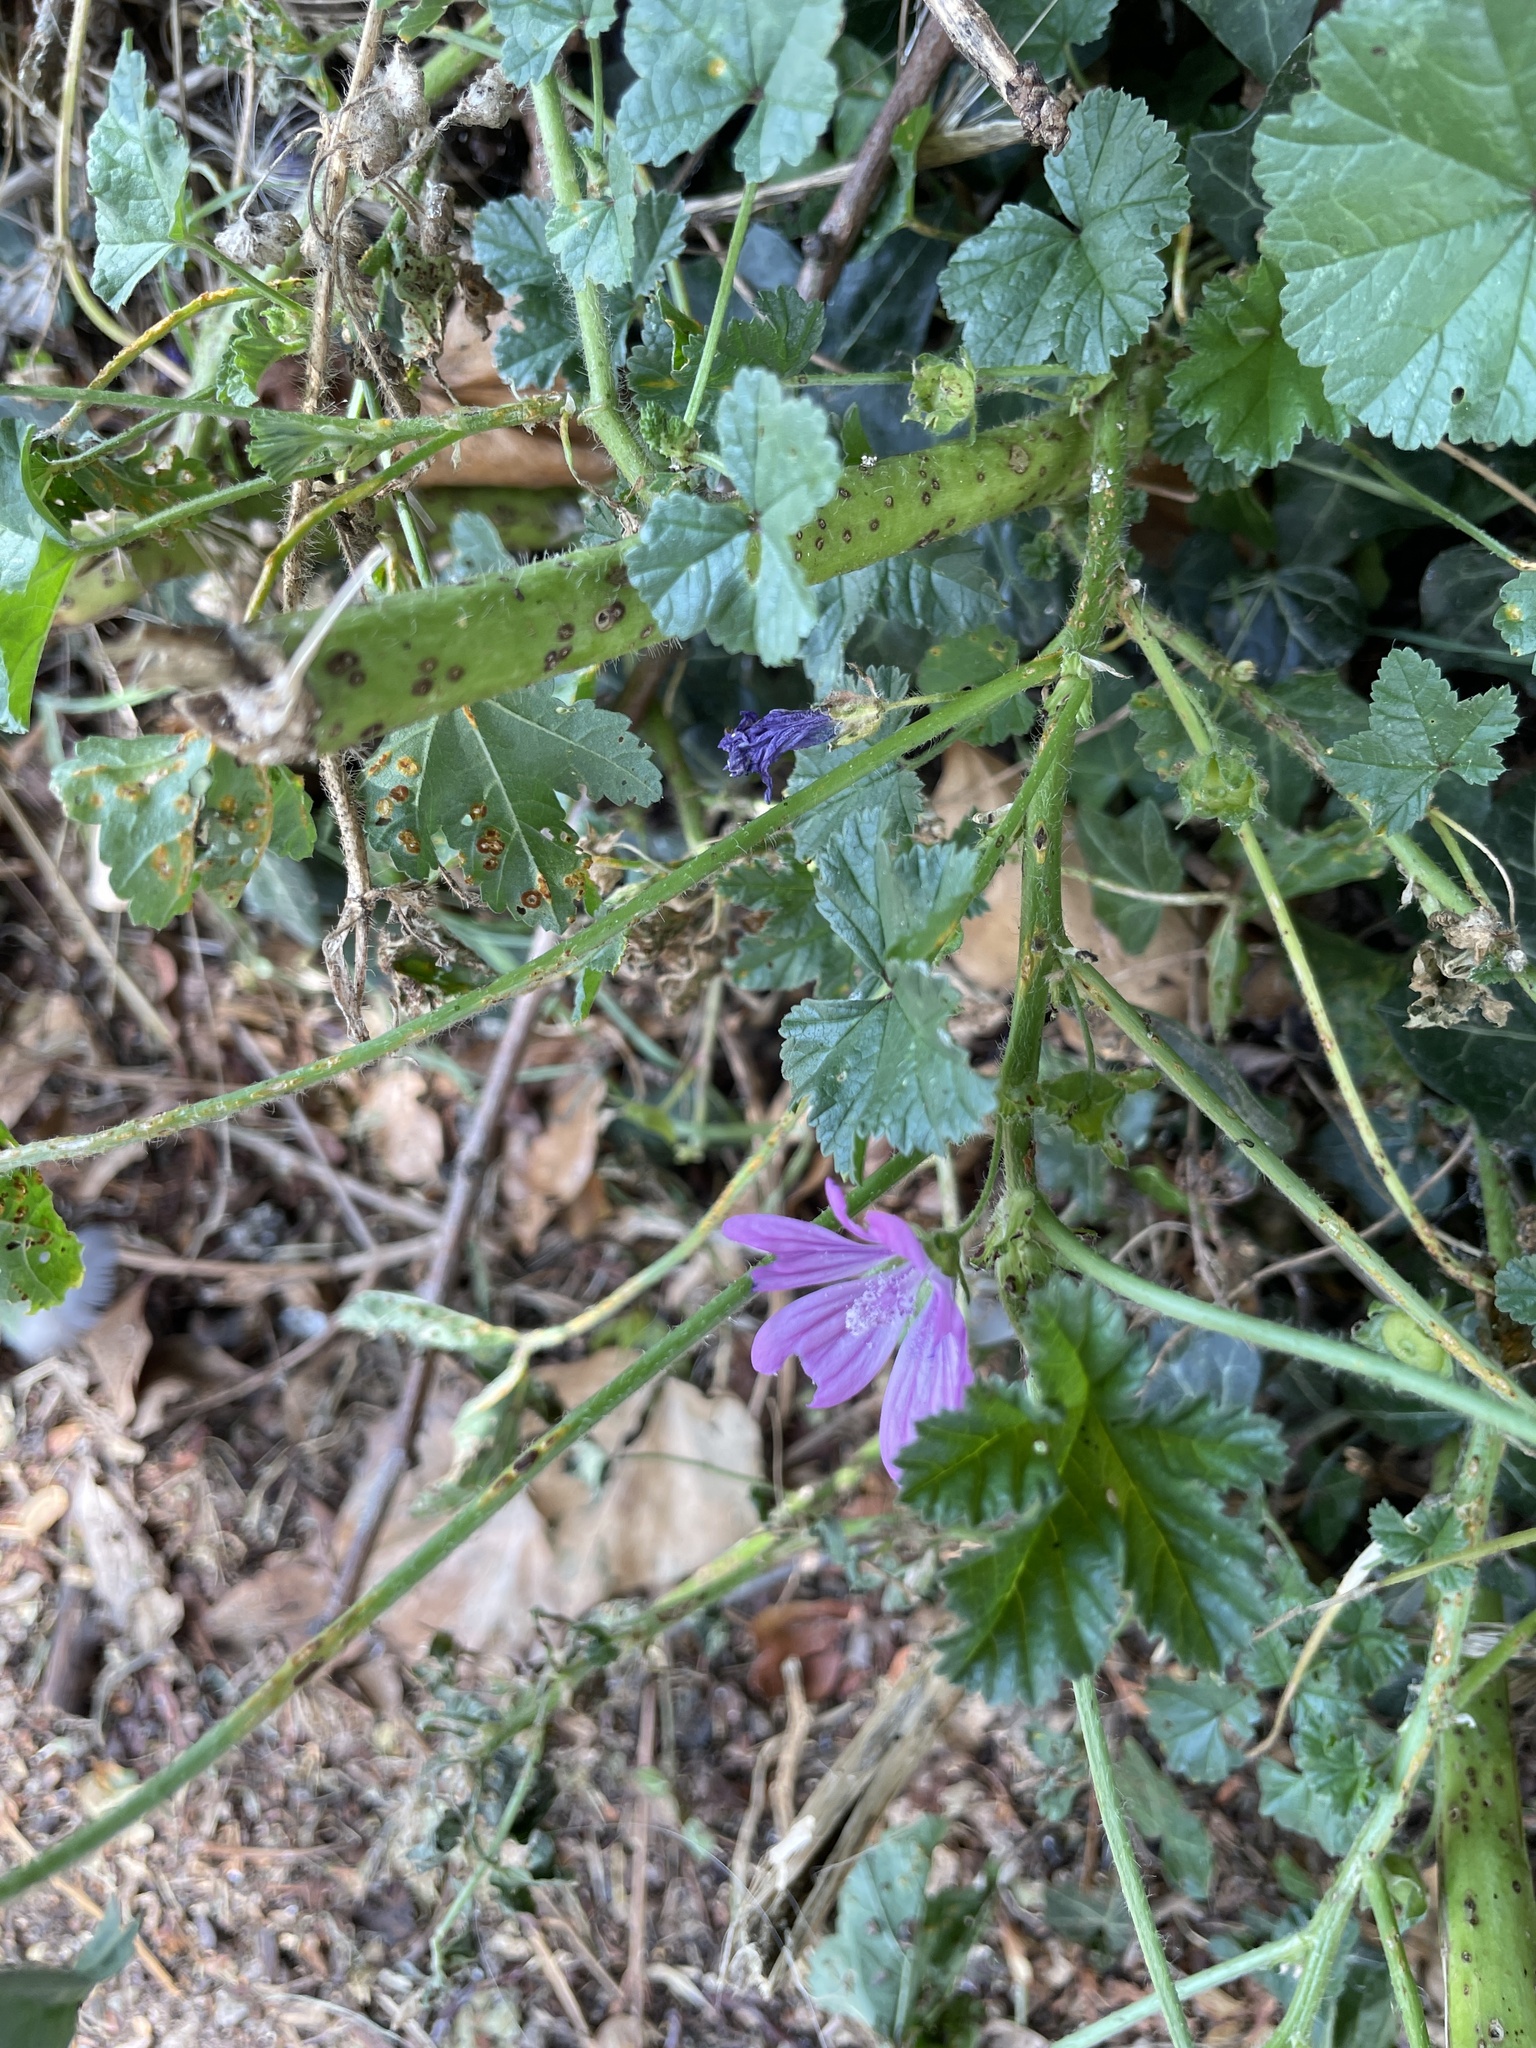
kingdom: Plantae
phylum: Tracheophyta
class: Magnoliopsida
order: Malvales
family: Malvaceae
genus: Malva
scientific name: Malva sylvestris
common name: Common mallow
